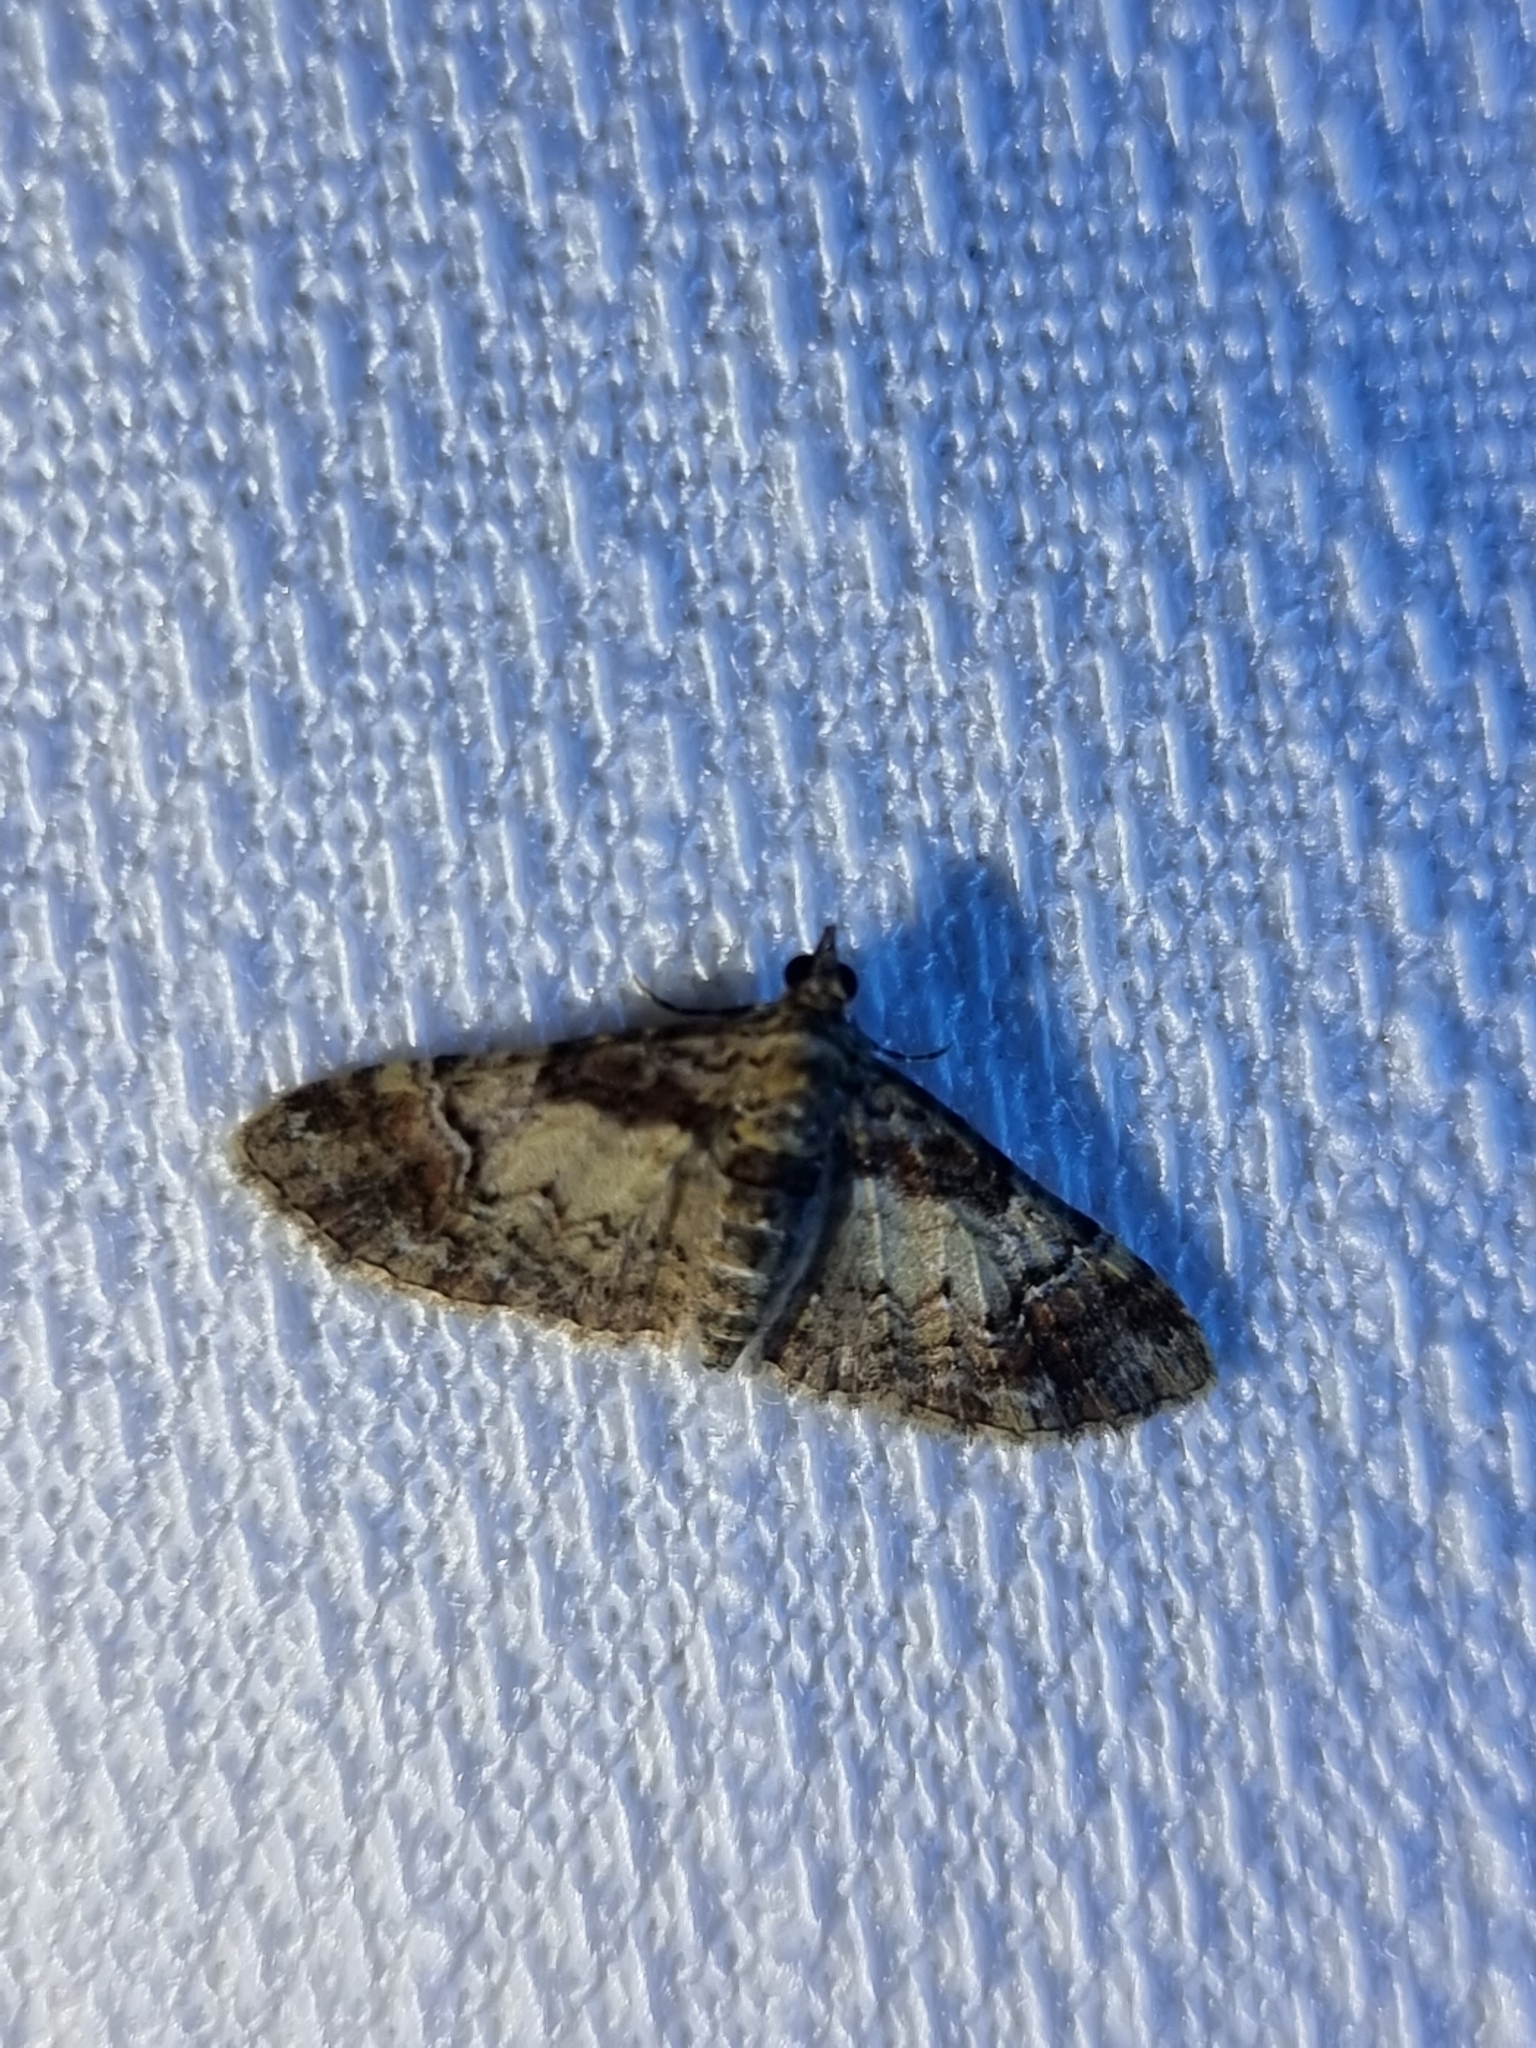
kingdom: Animalia
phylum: Arthropoda
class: Insecta
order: Lepidoptera
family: Geometridae
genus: Mnesiloba
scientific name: Mnesiloba eupitheciata
